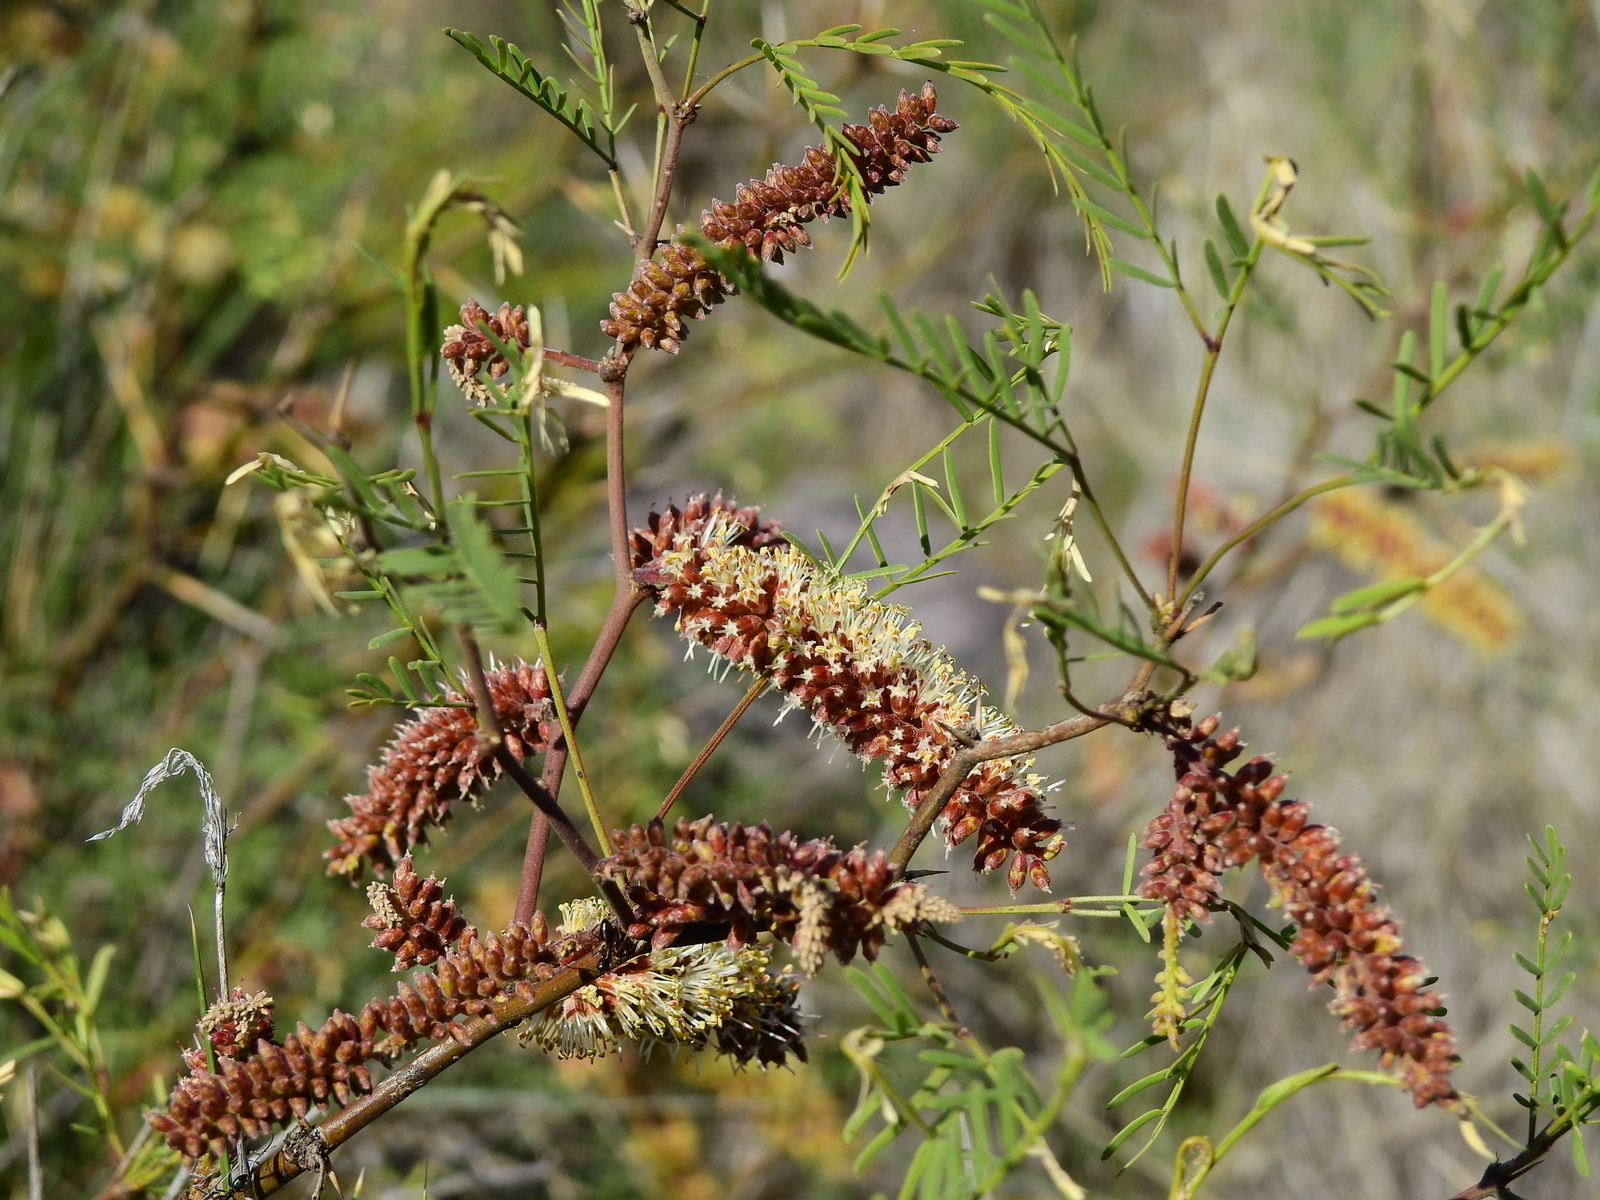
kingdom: Plantae
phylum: Tracheophyta
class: Magnoliopsida
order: Fabales
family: Fabaceae
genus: Prosopis
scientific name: Prosopis flexuosa
